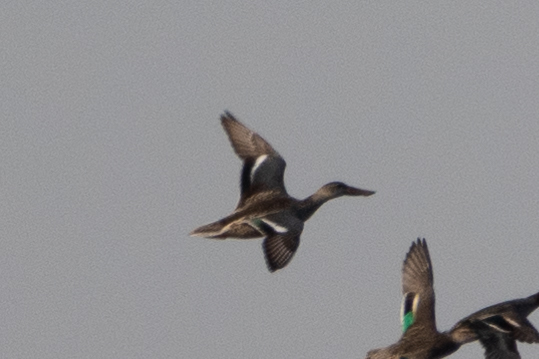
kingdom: Animalia
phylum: Chordata
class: Aves
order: Anseriformes
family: Anatidae
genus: Spatula
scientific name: Spatula clypeata
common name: Northern shoveler
